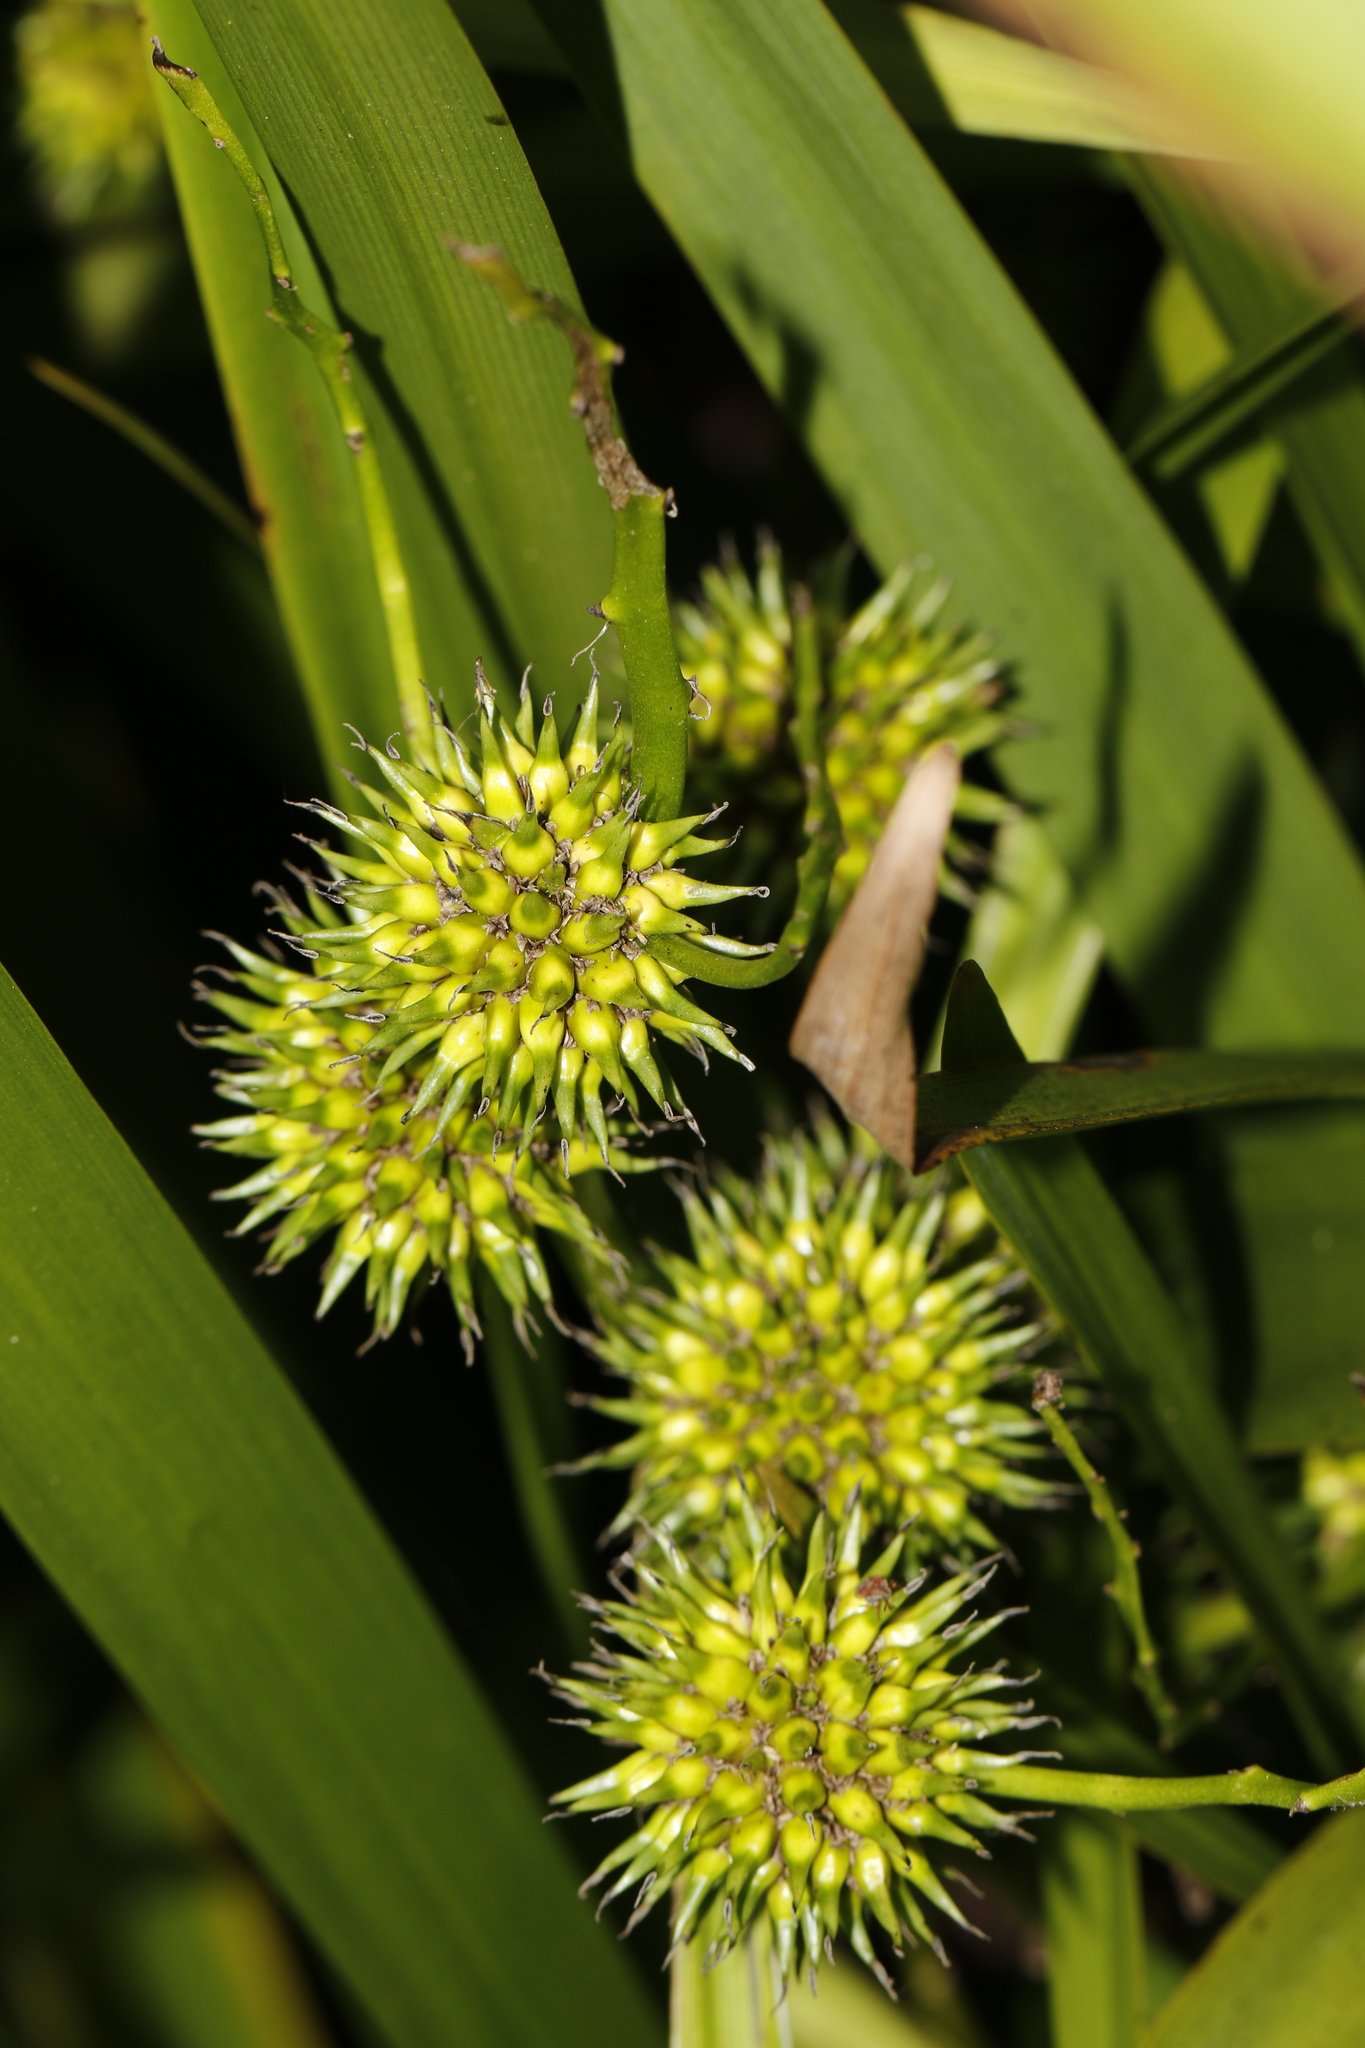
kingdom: Plantae
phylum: Tracheophyta
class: Liliopsida
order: Poales
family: Typhaceae
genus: Sparganium
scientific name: Sparganium erectum
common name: Branched bur-reed
